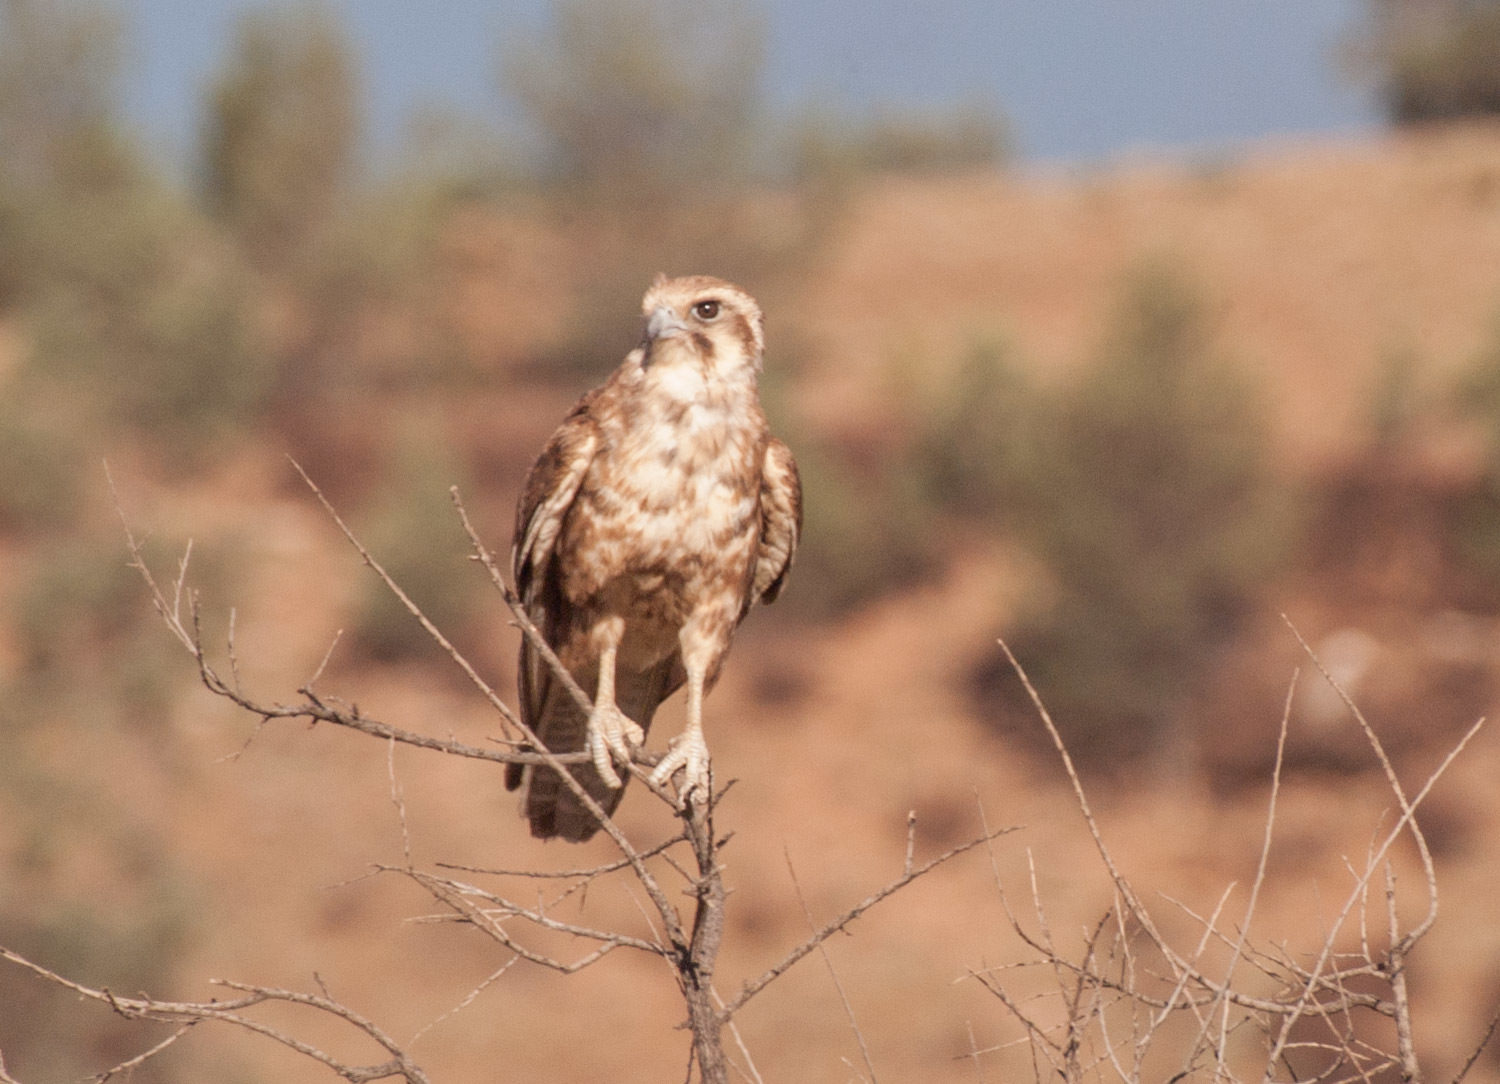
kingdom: Animalia
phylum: Chordata
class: Aves
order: Falconiformes
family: Falconidae
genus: Falco
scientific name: Falco berigora
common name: Brown falcon
